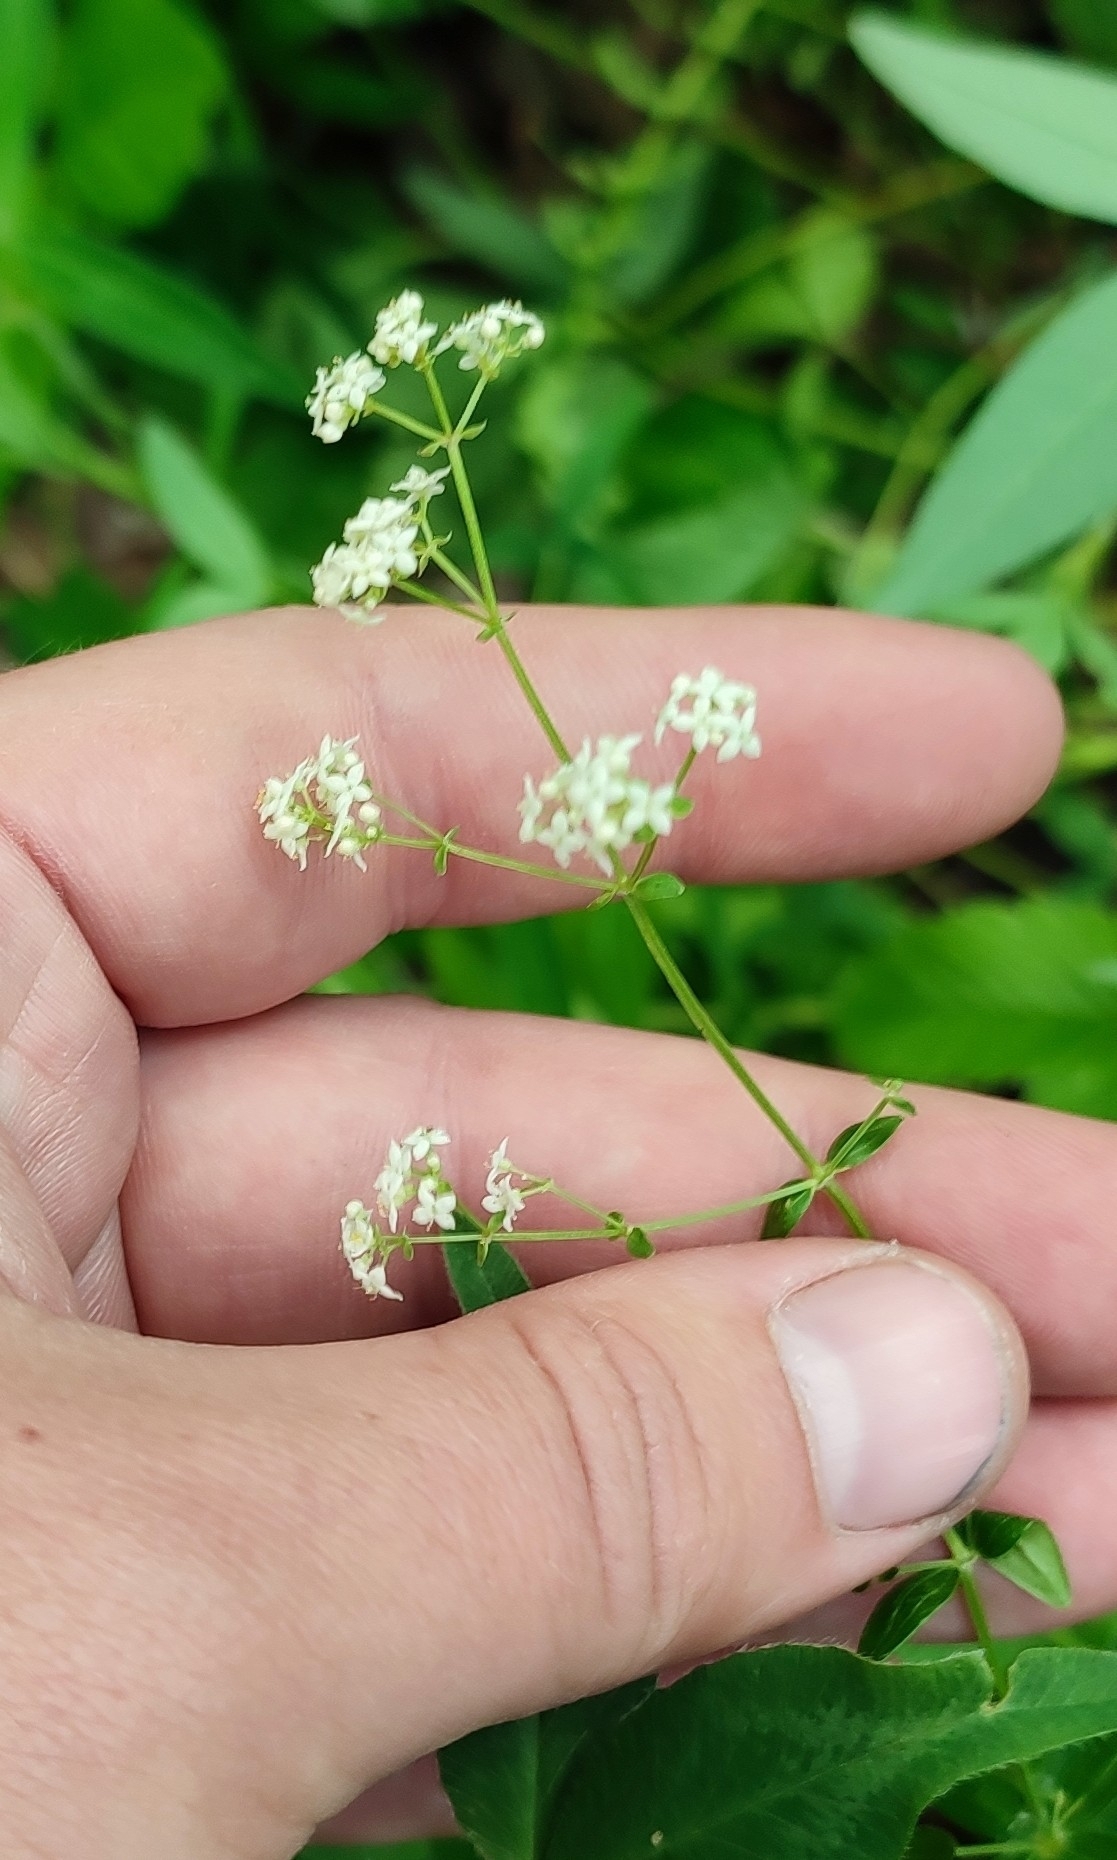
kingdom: Plantae
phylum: Tracheophyta
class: Magnoliopsida
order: Gentianales
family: Rubiaceae
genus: Galium
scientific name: Galium boreale
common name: Northern bedstraw
